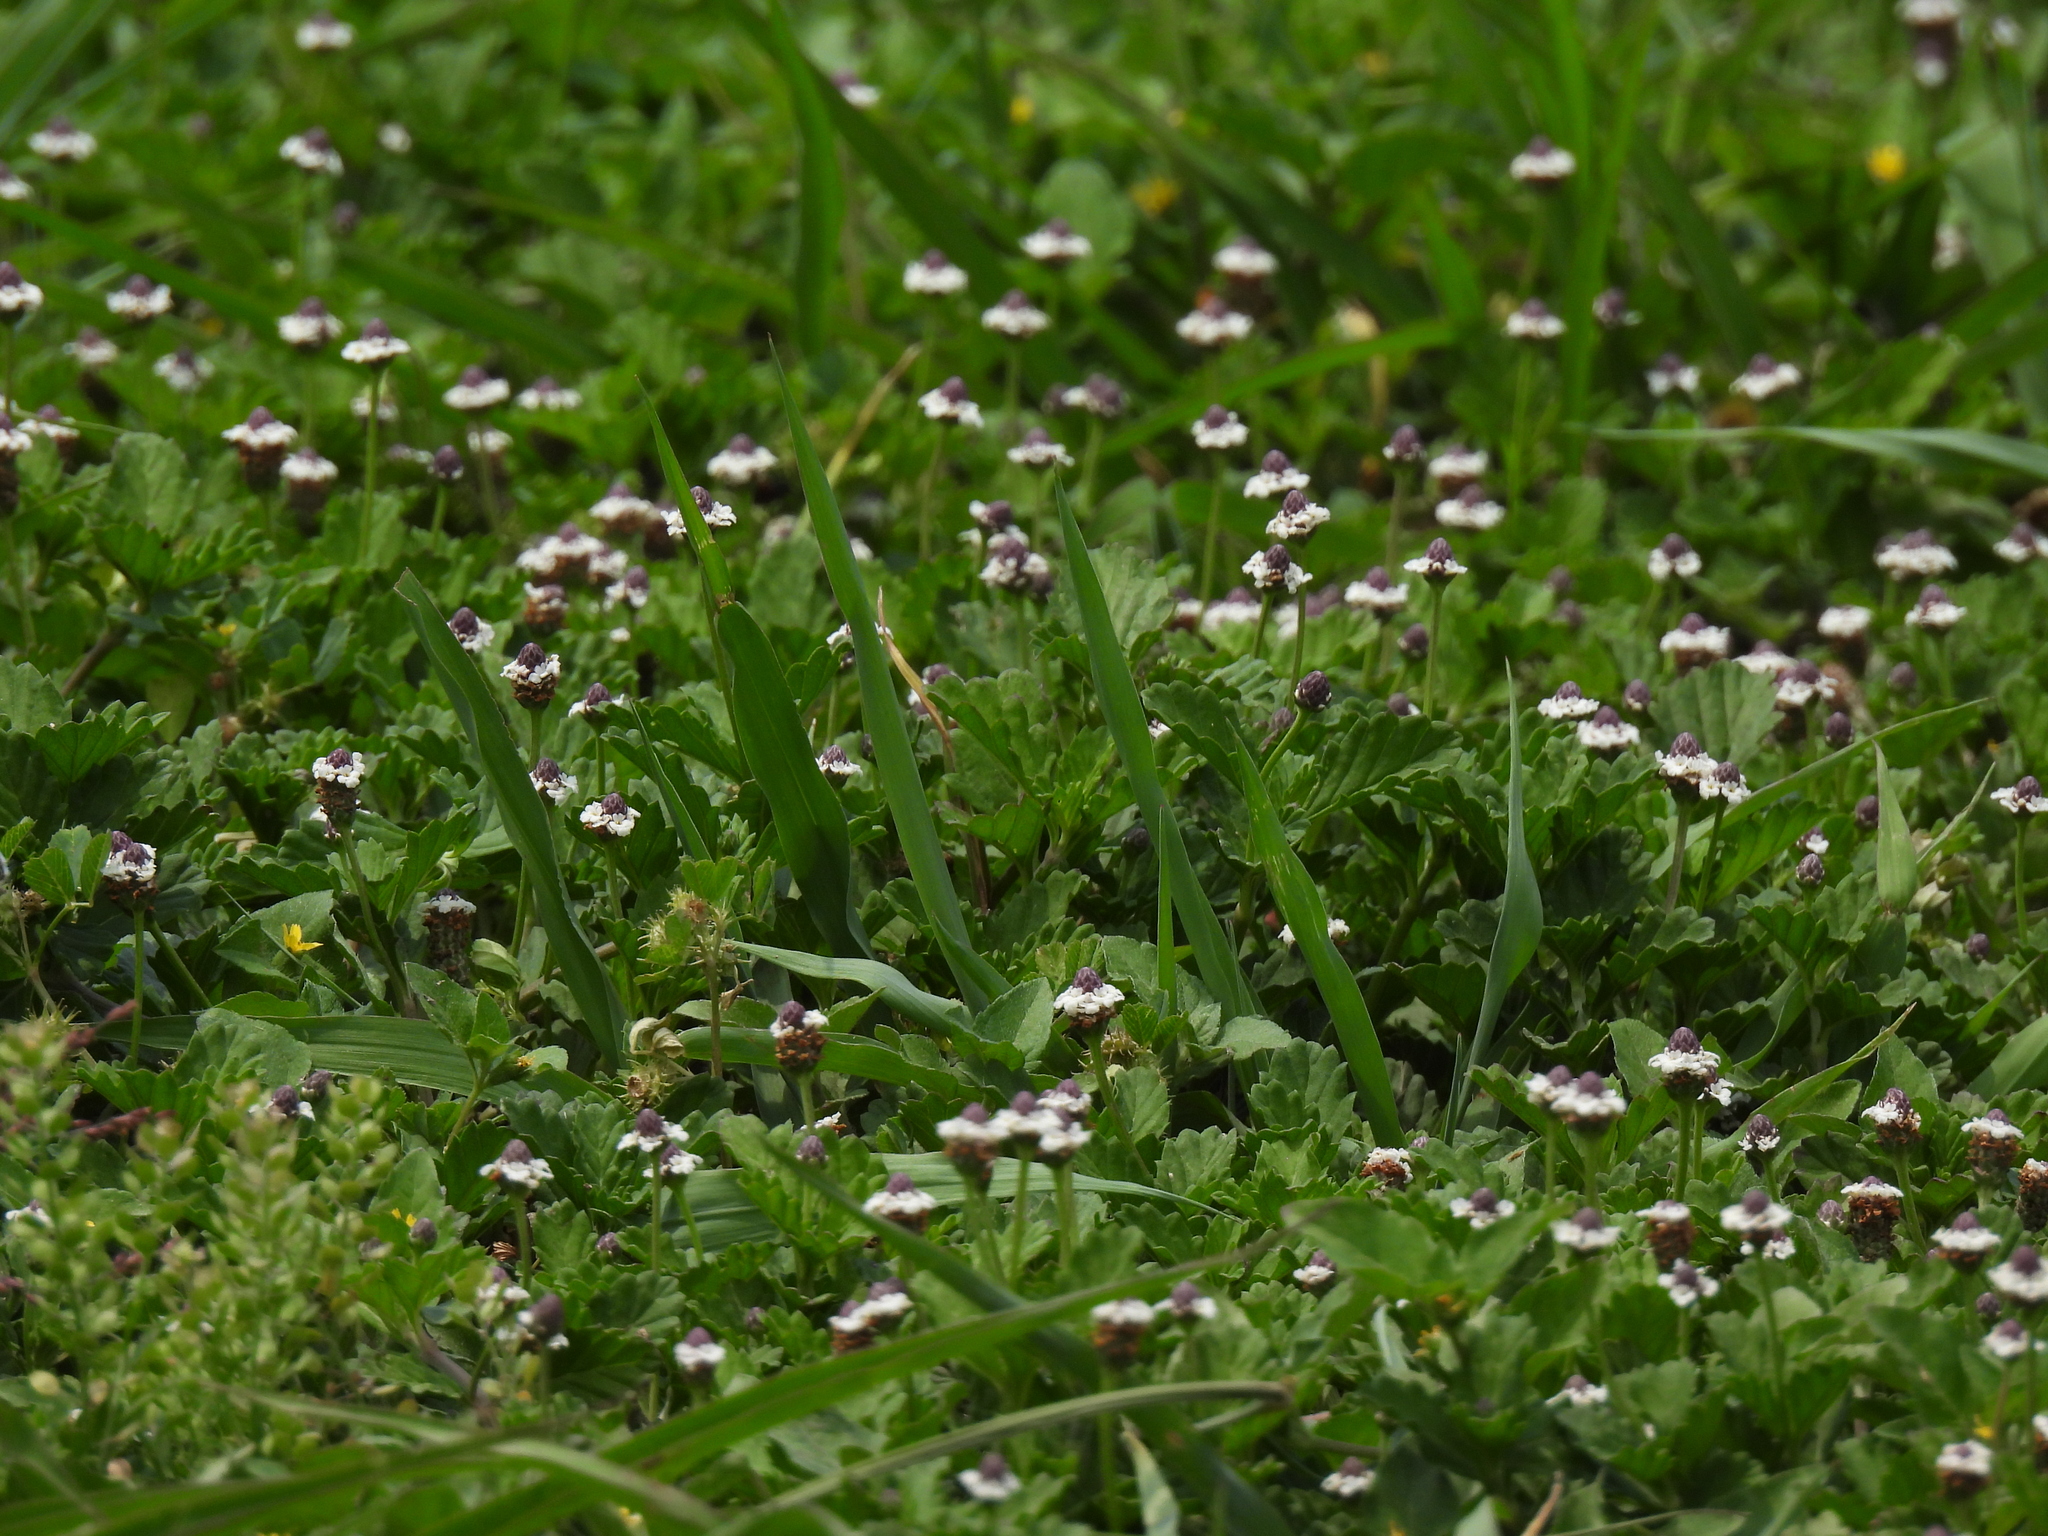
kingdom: Plantae
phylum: Tracheophyta
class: Magnoliopsida
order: Lamiales
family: Verbenaceae
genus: Phyla
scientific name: Phyla nodiflora
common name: Frogfruit
